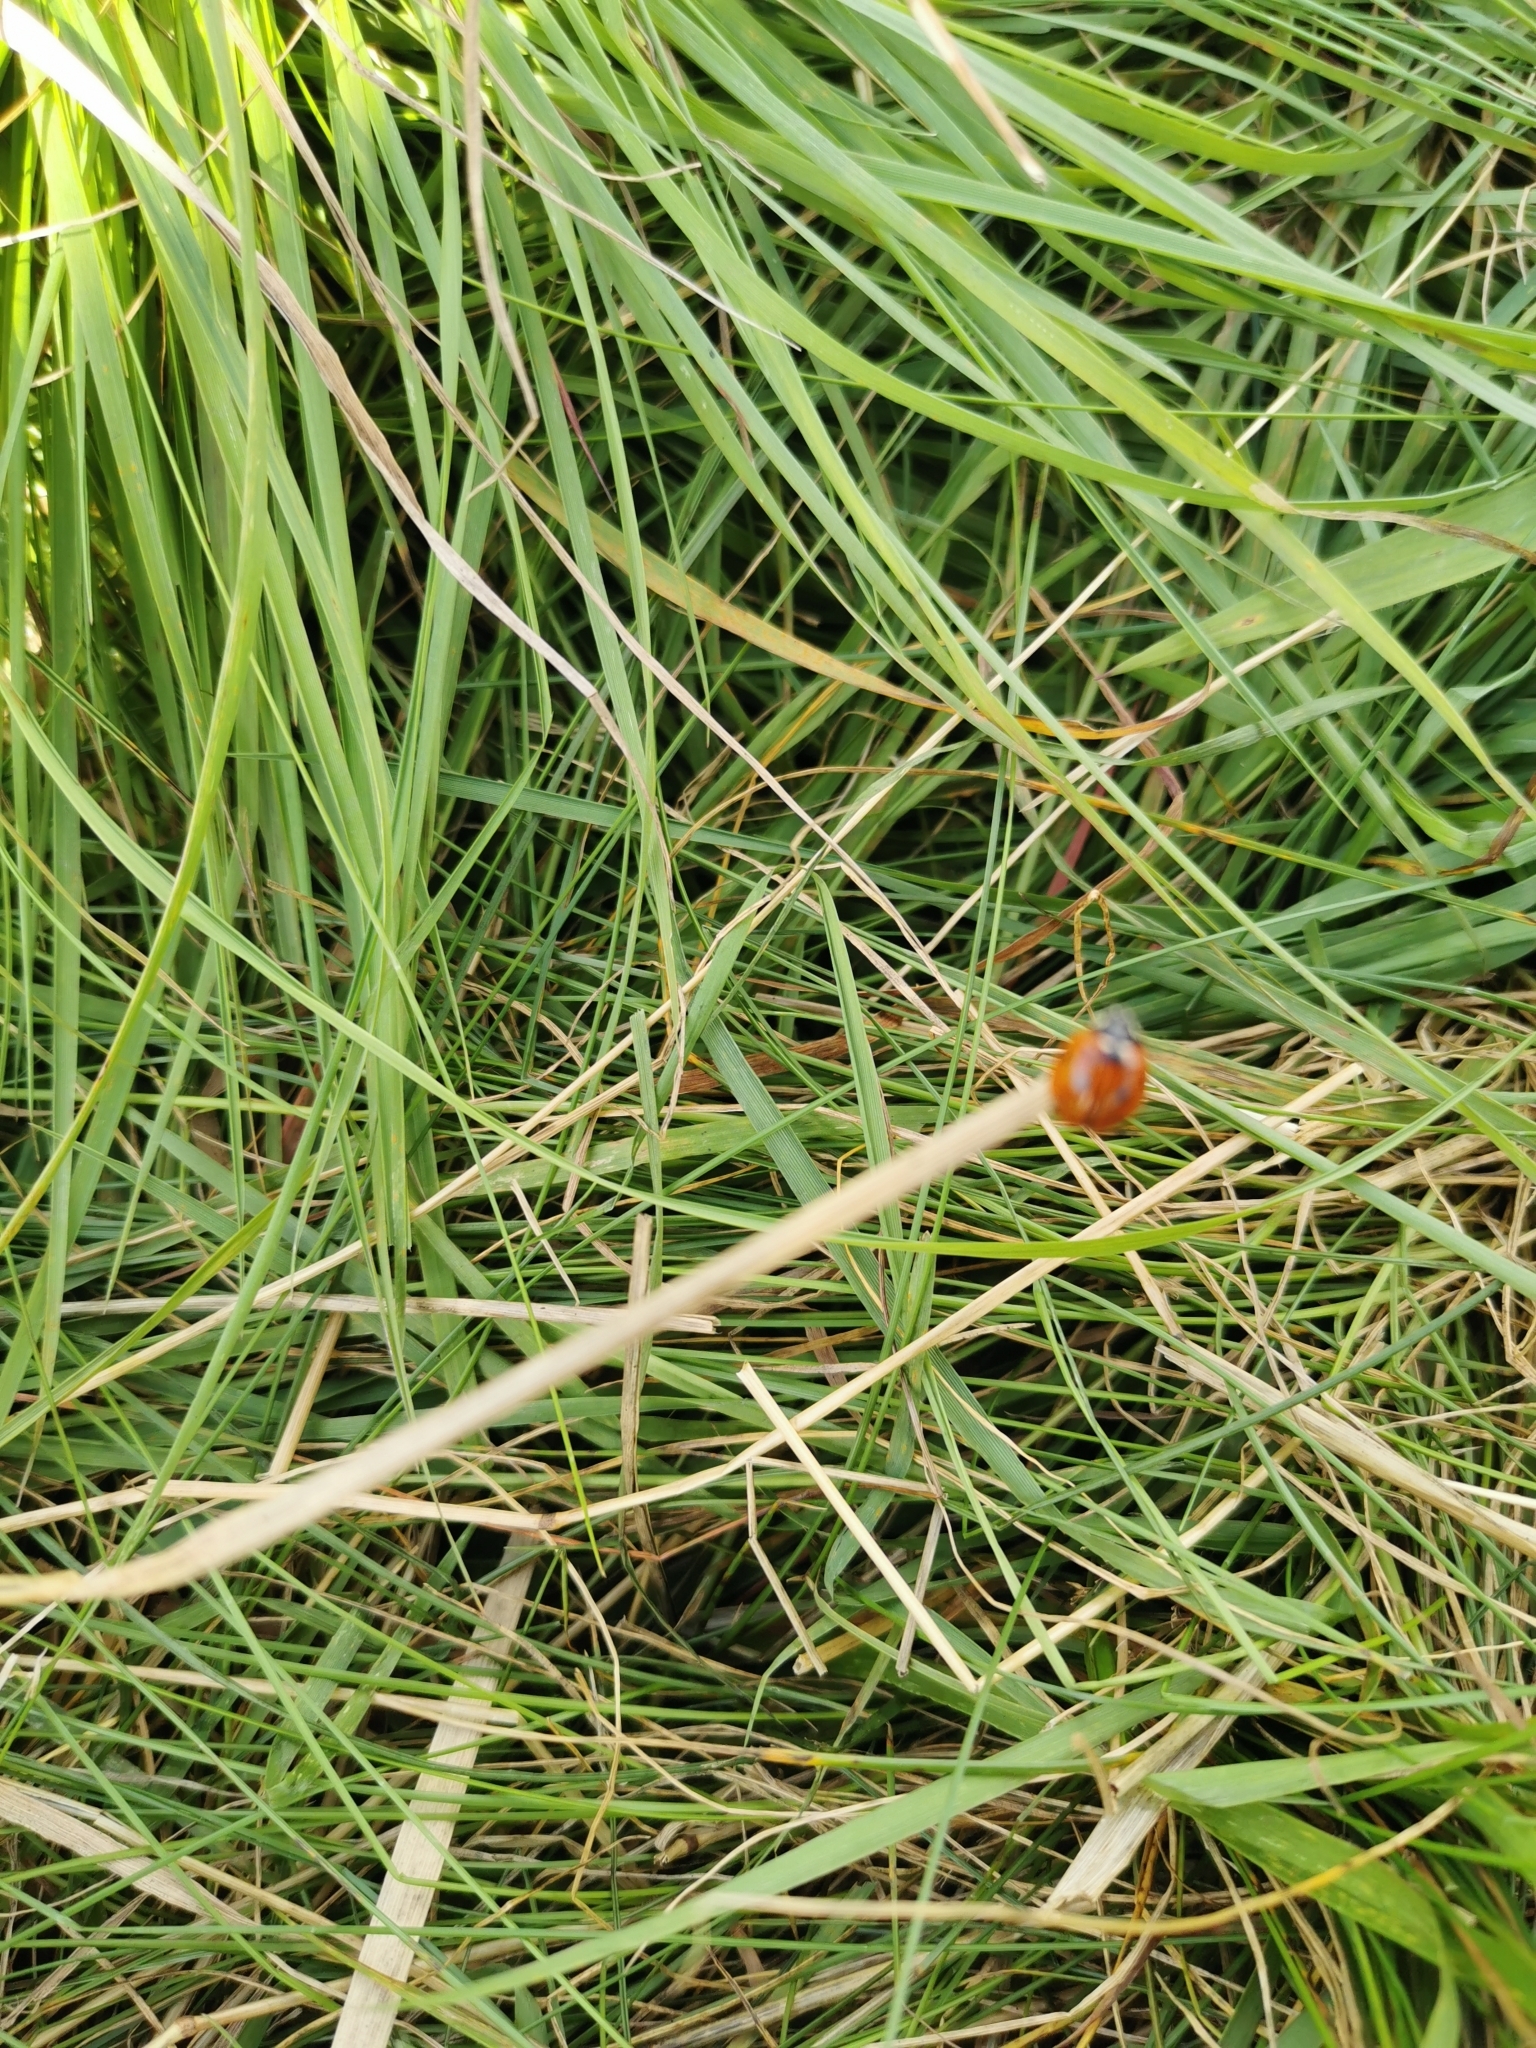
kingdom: Animalia
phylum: Arthropoda
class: Insecta
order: Coleoptera
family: Coccinellidae
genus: Coccinella
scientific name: Coccinella septempunctata
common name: Sevenspotted lady beetle
